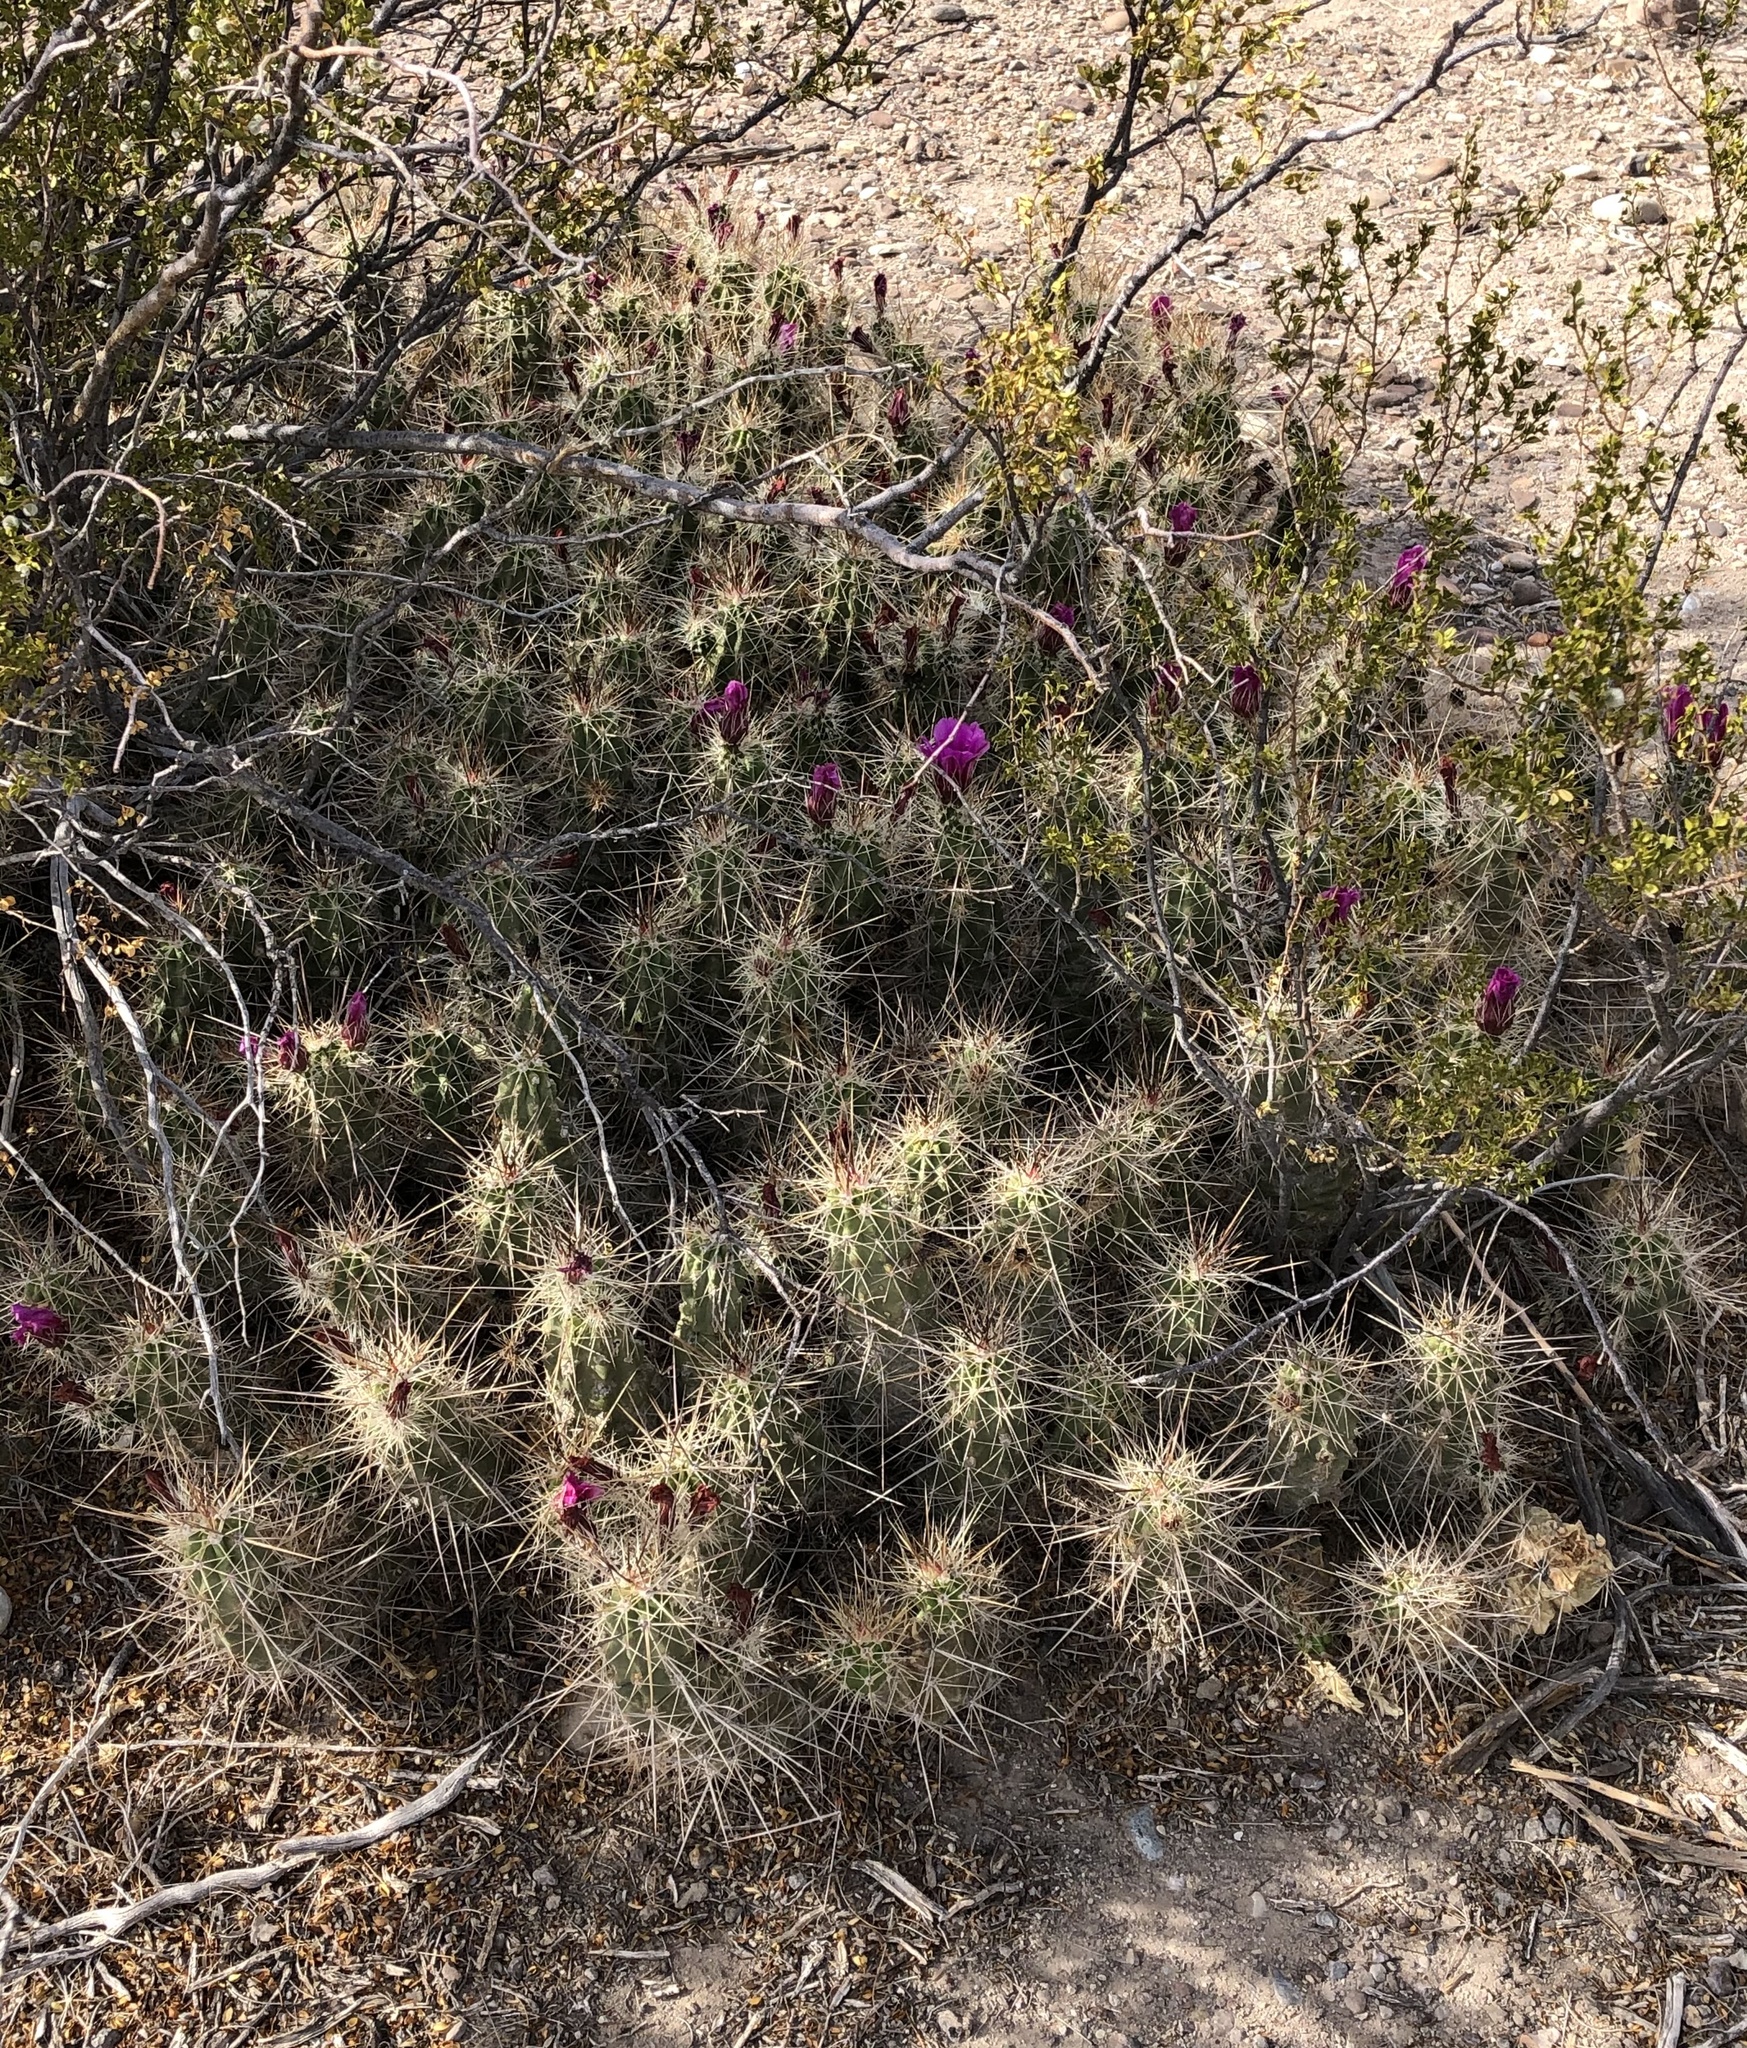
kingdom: Plantae
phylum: Tracheophyta
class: Magnoliopsida
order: Caryophyllales
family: Cactaceae
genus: Echinocereus
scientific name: Echinocereus enneacanthus
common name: Pitaya
